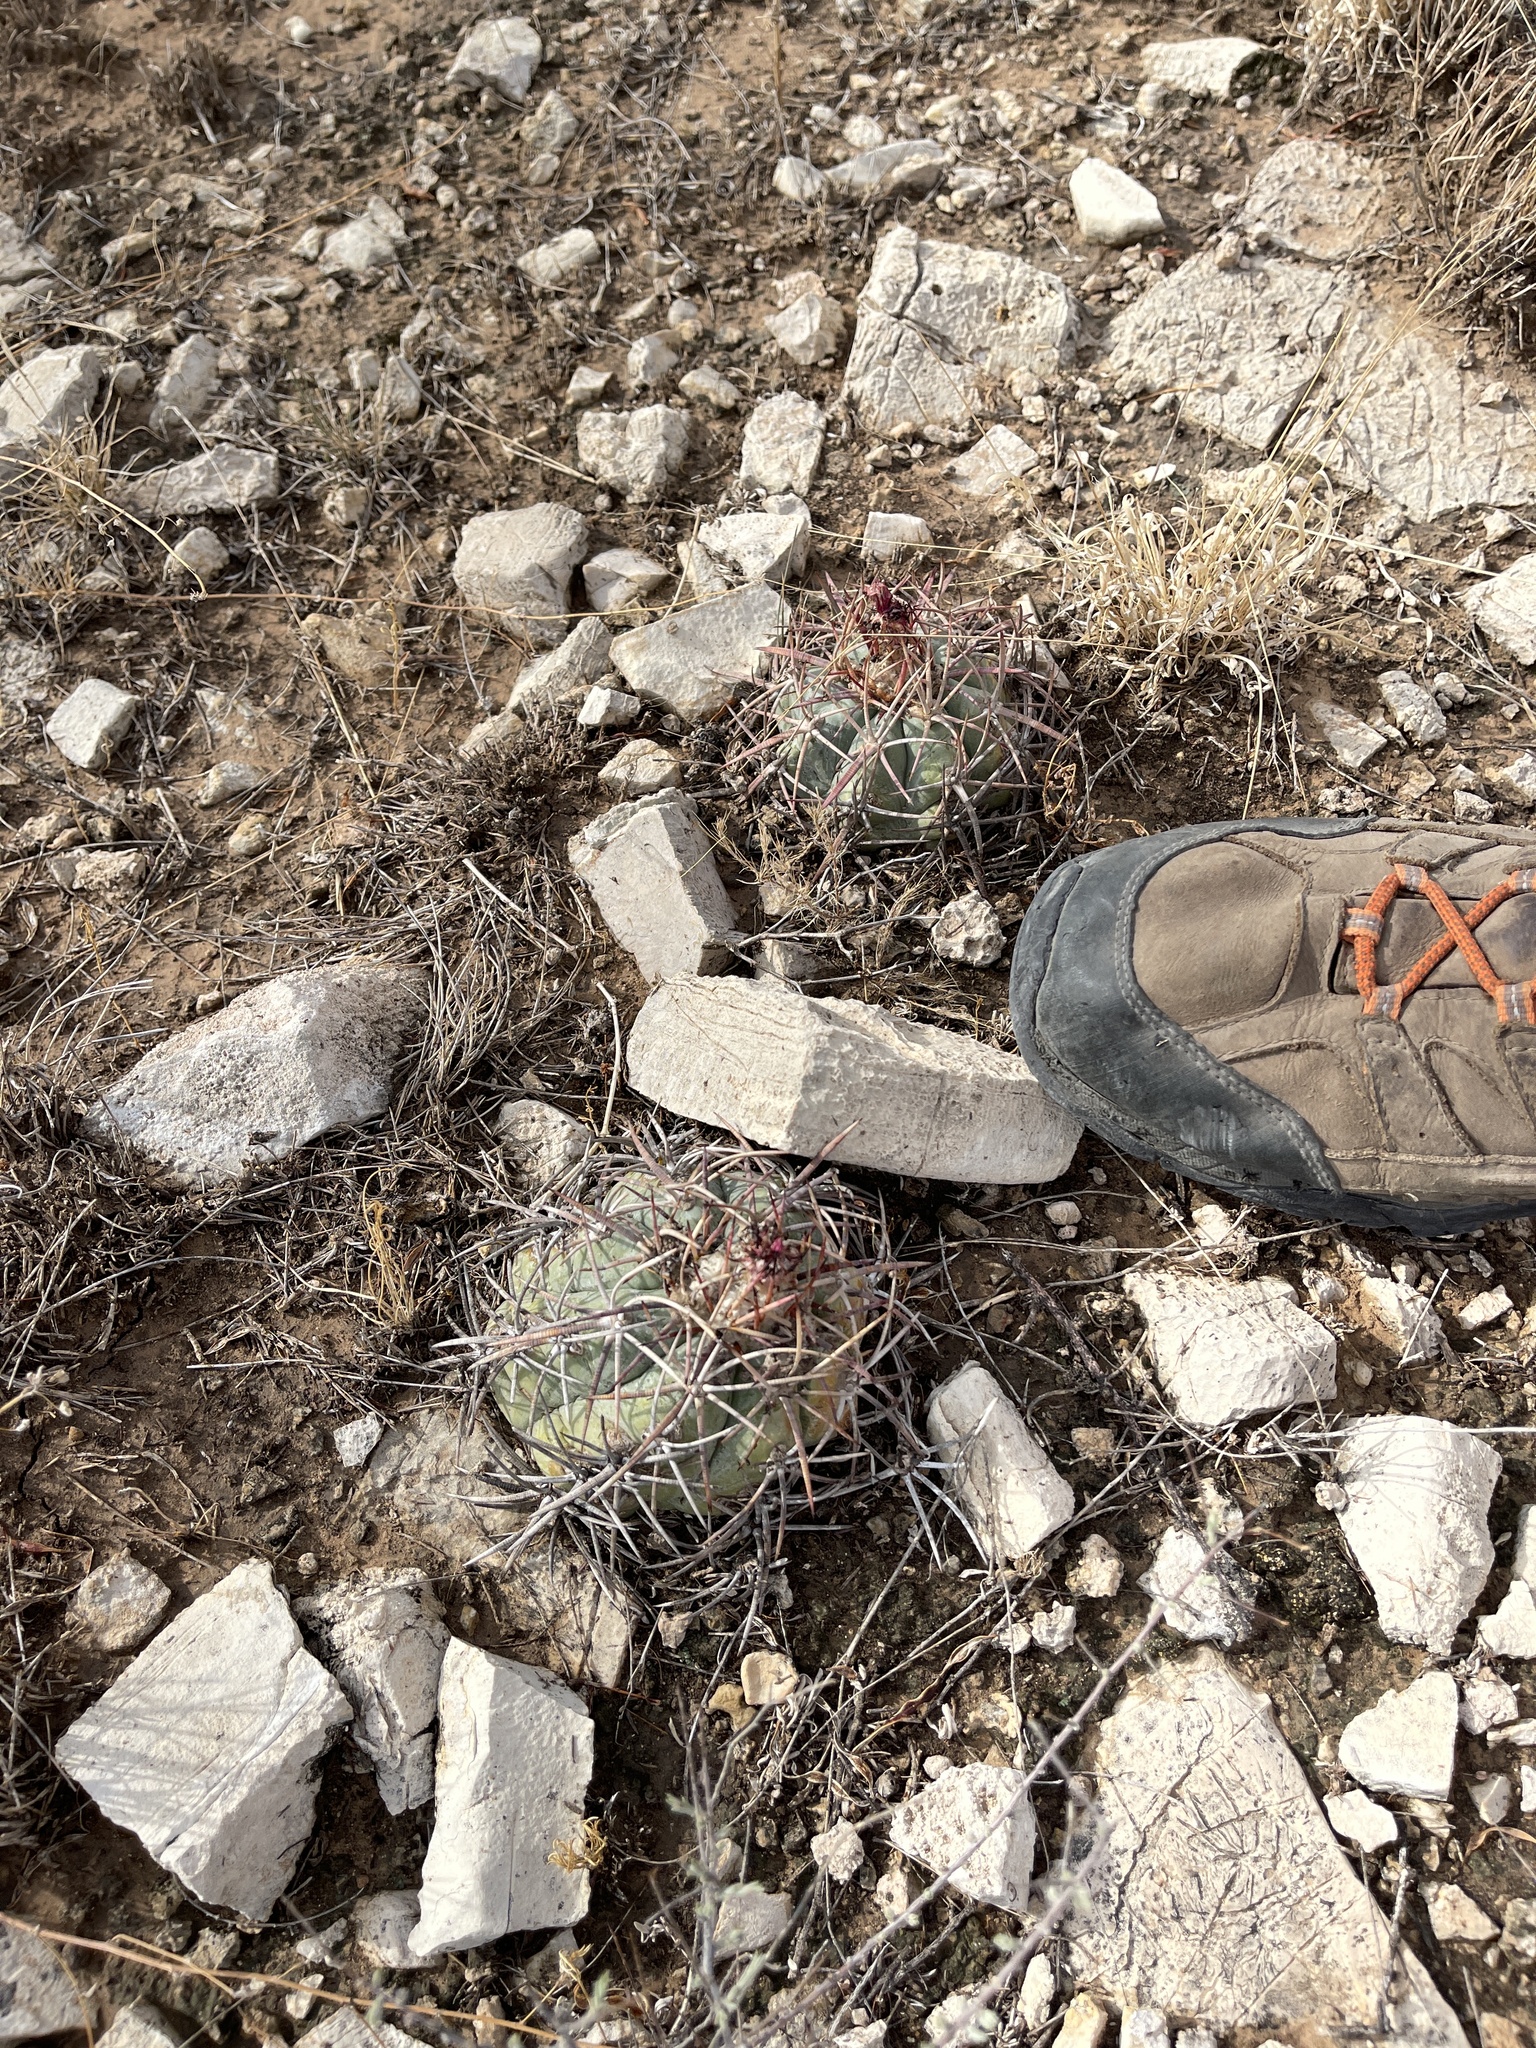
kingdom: Plantae
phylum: Tracheophyta
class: Magnoliopsida
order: Caryophyllales
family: Cactaceae
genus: Echinocactus
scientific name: Echinocactus horizonthalonius
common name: Devilshead
